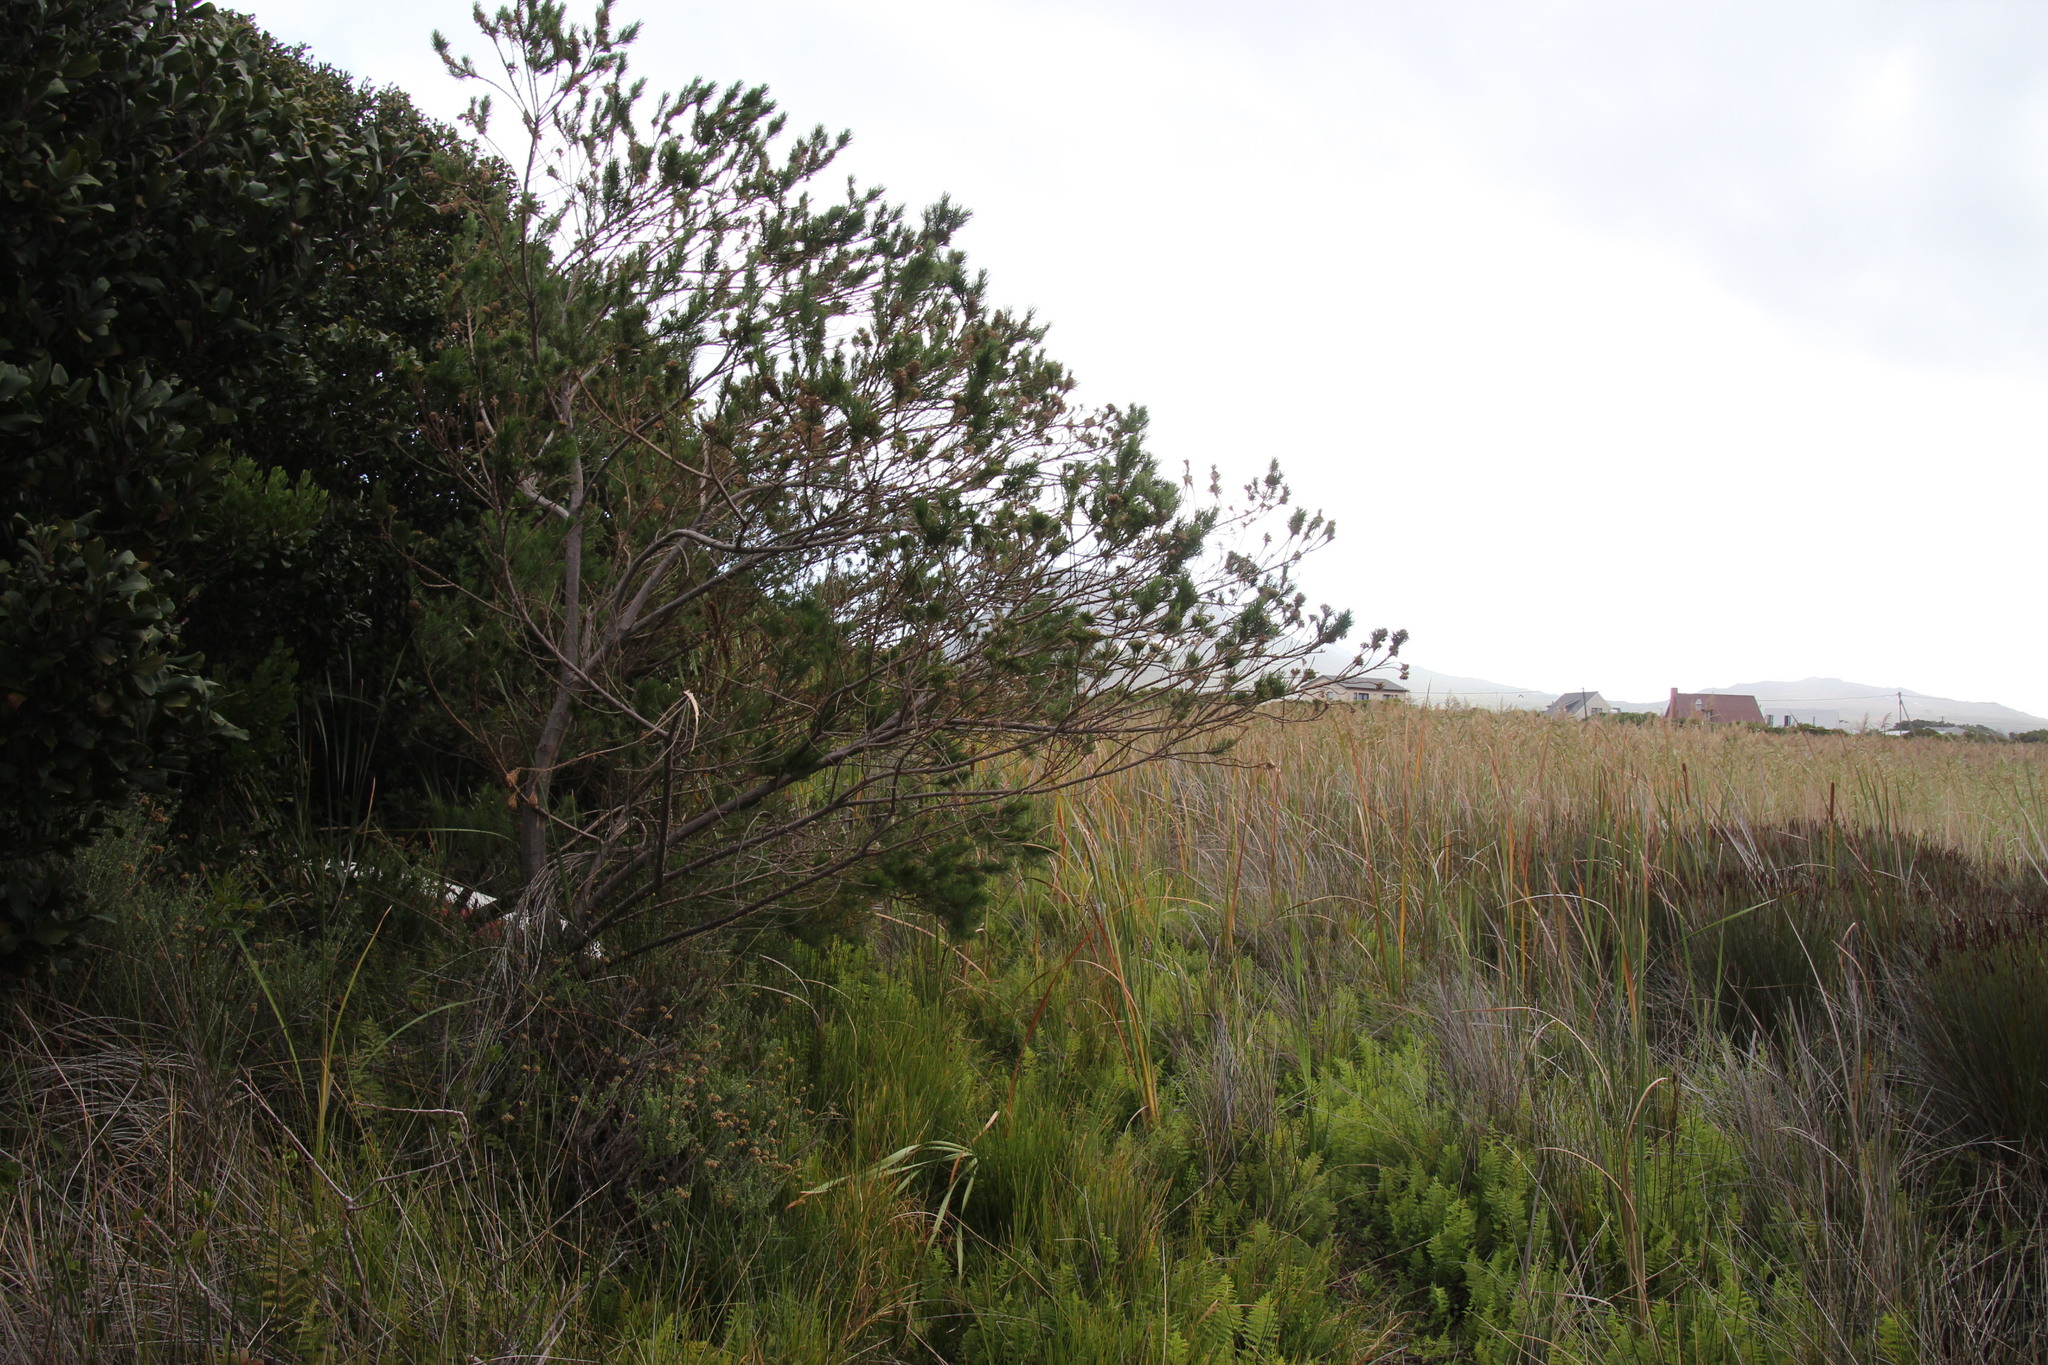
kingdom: Plantae
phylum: Tracheophyta
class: Magnoliopsida
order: Fabales
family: Fabaceae
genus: Psoralea
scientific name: Psoralea pinnata
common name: African scurfpea
